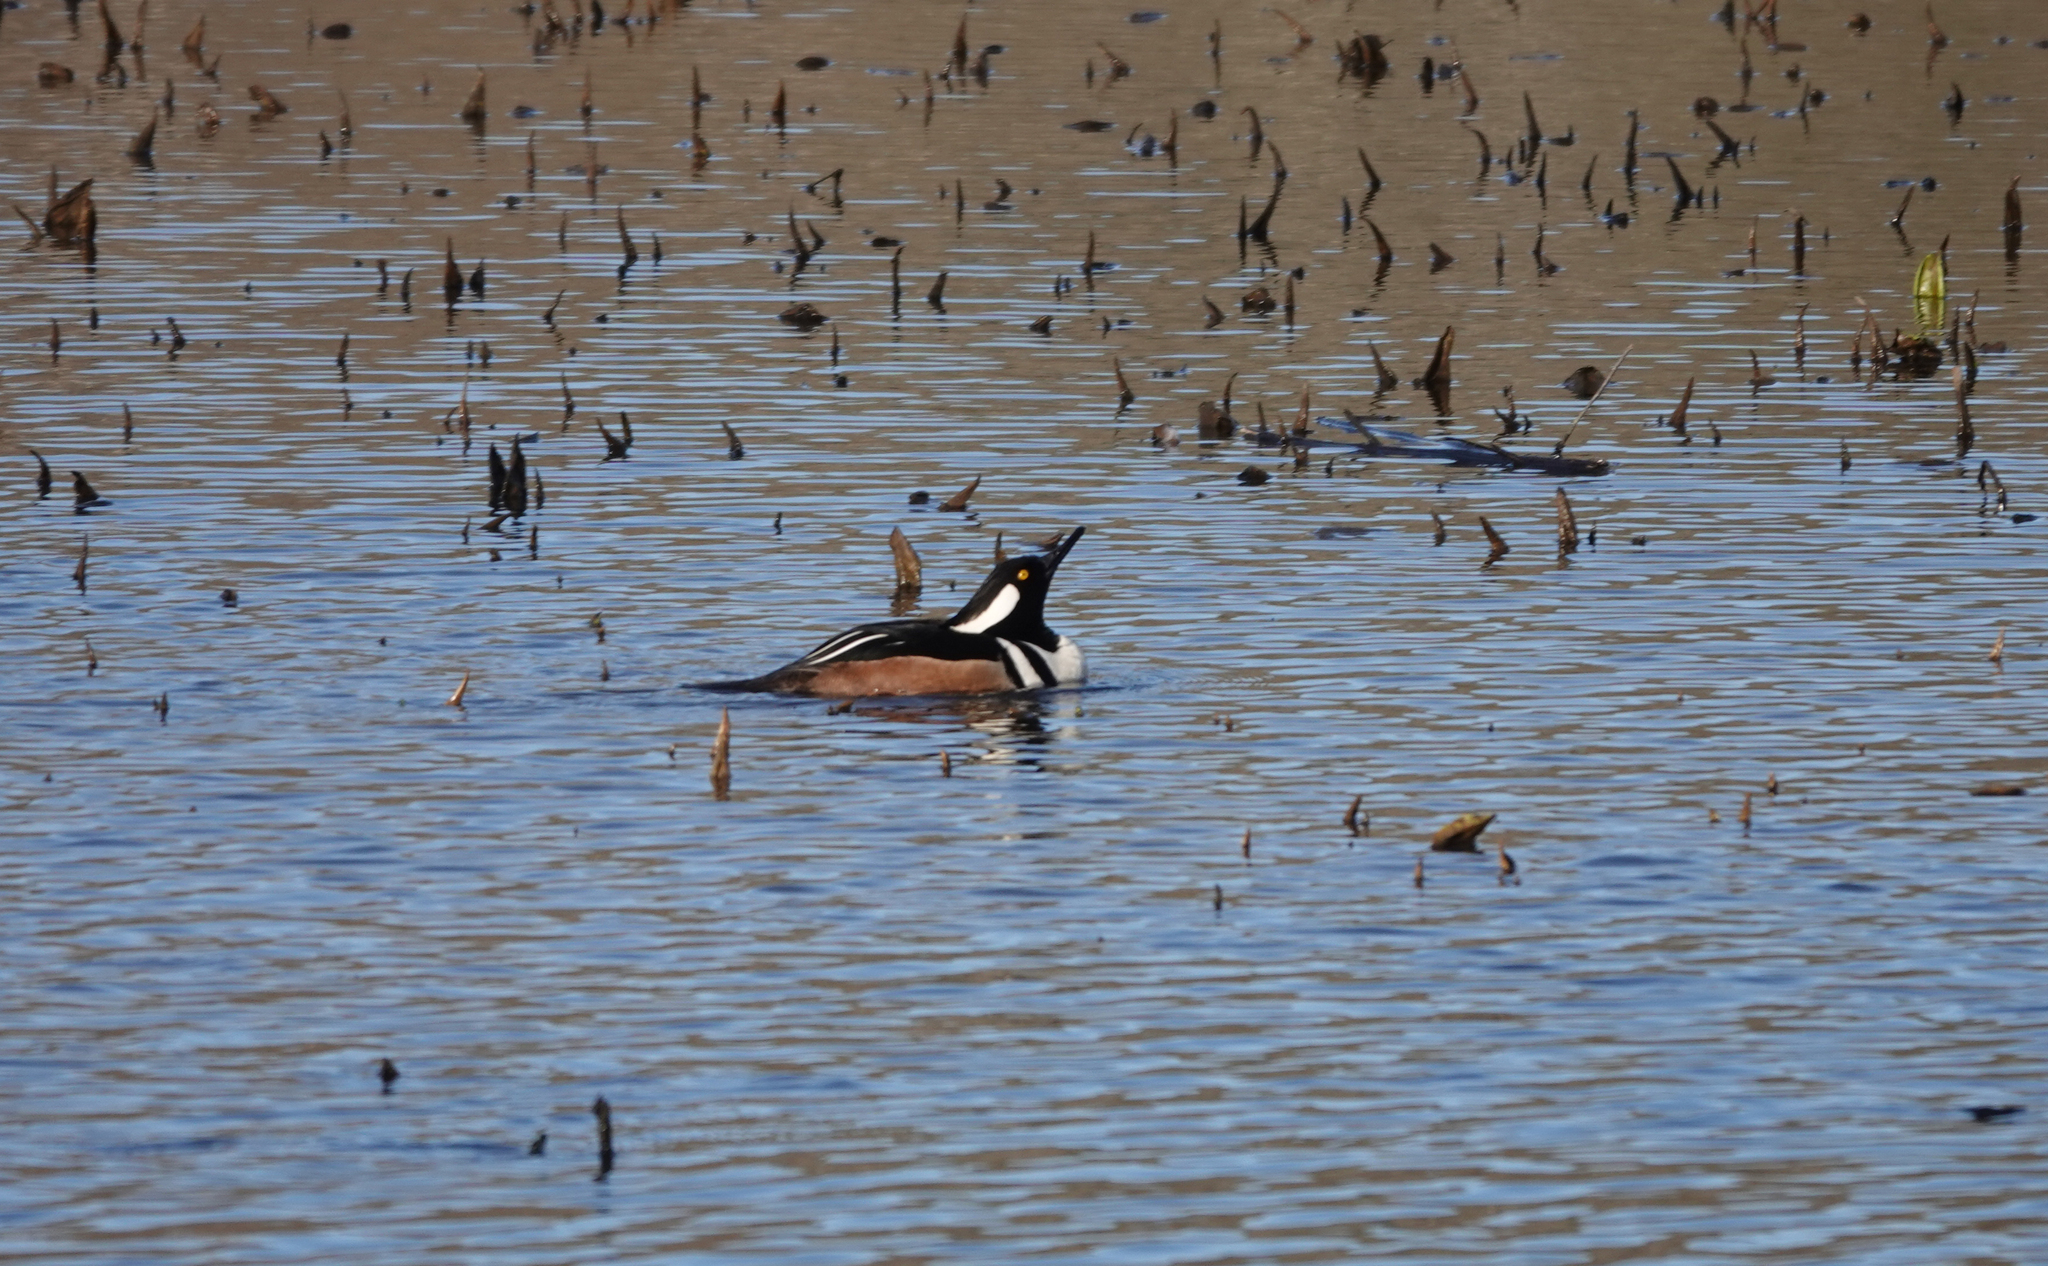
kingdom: Animalia
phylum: Chordata
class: Aves
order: Anseriformes
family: Anatidae
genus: Lophodytes
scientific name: Lophodytes cucullatus
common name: Hooded merganser
